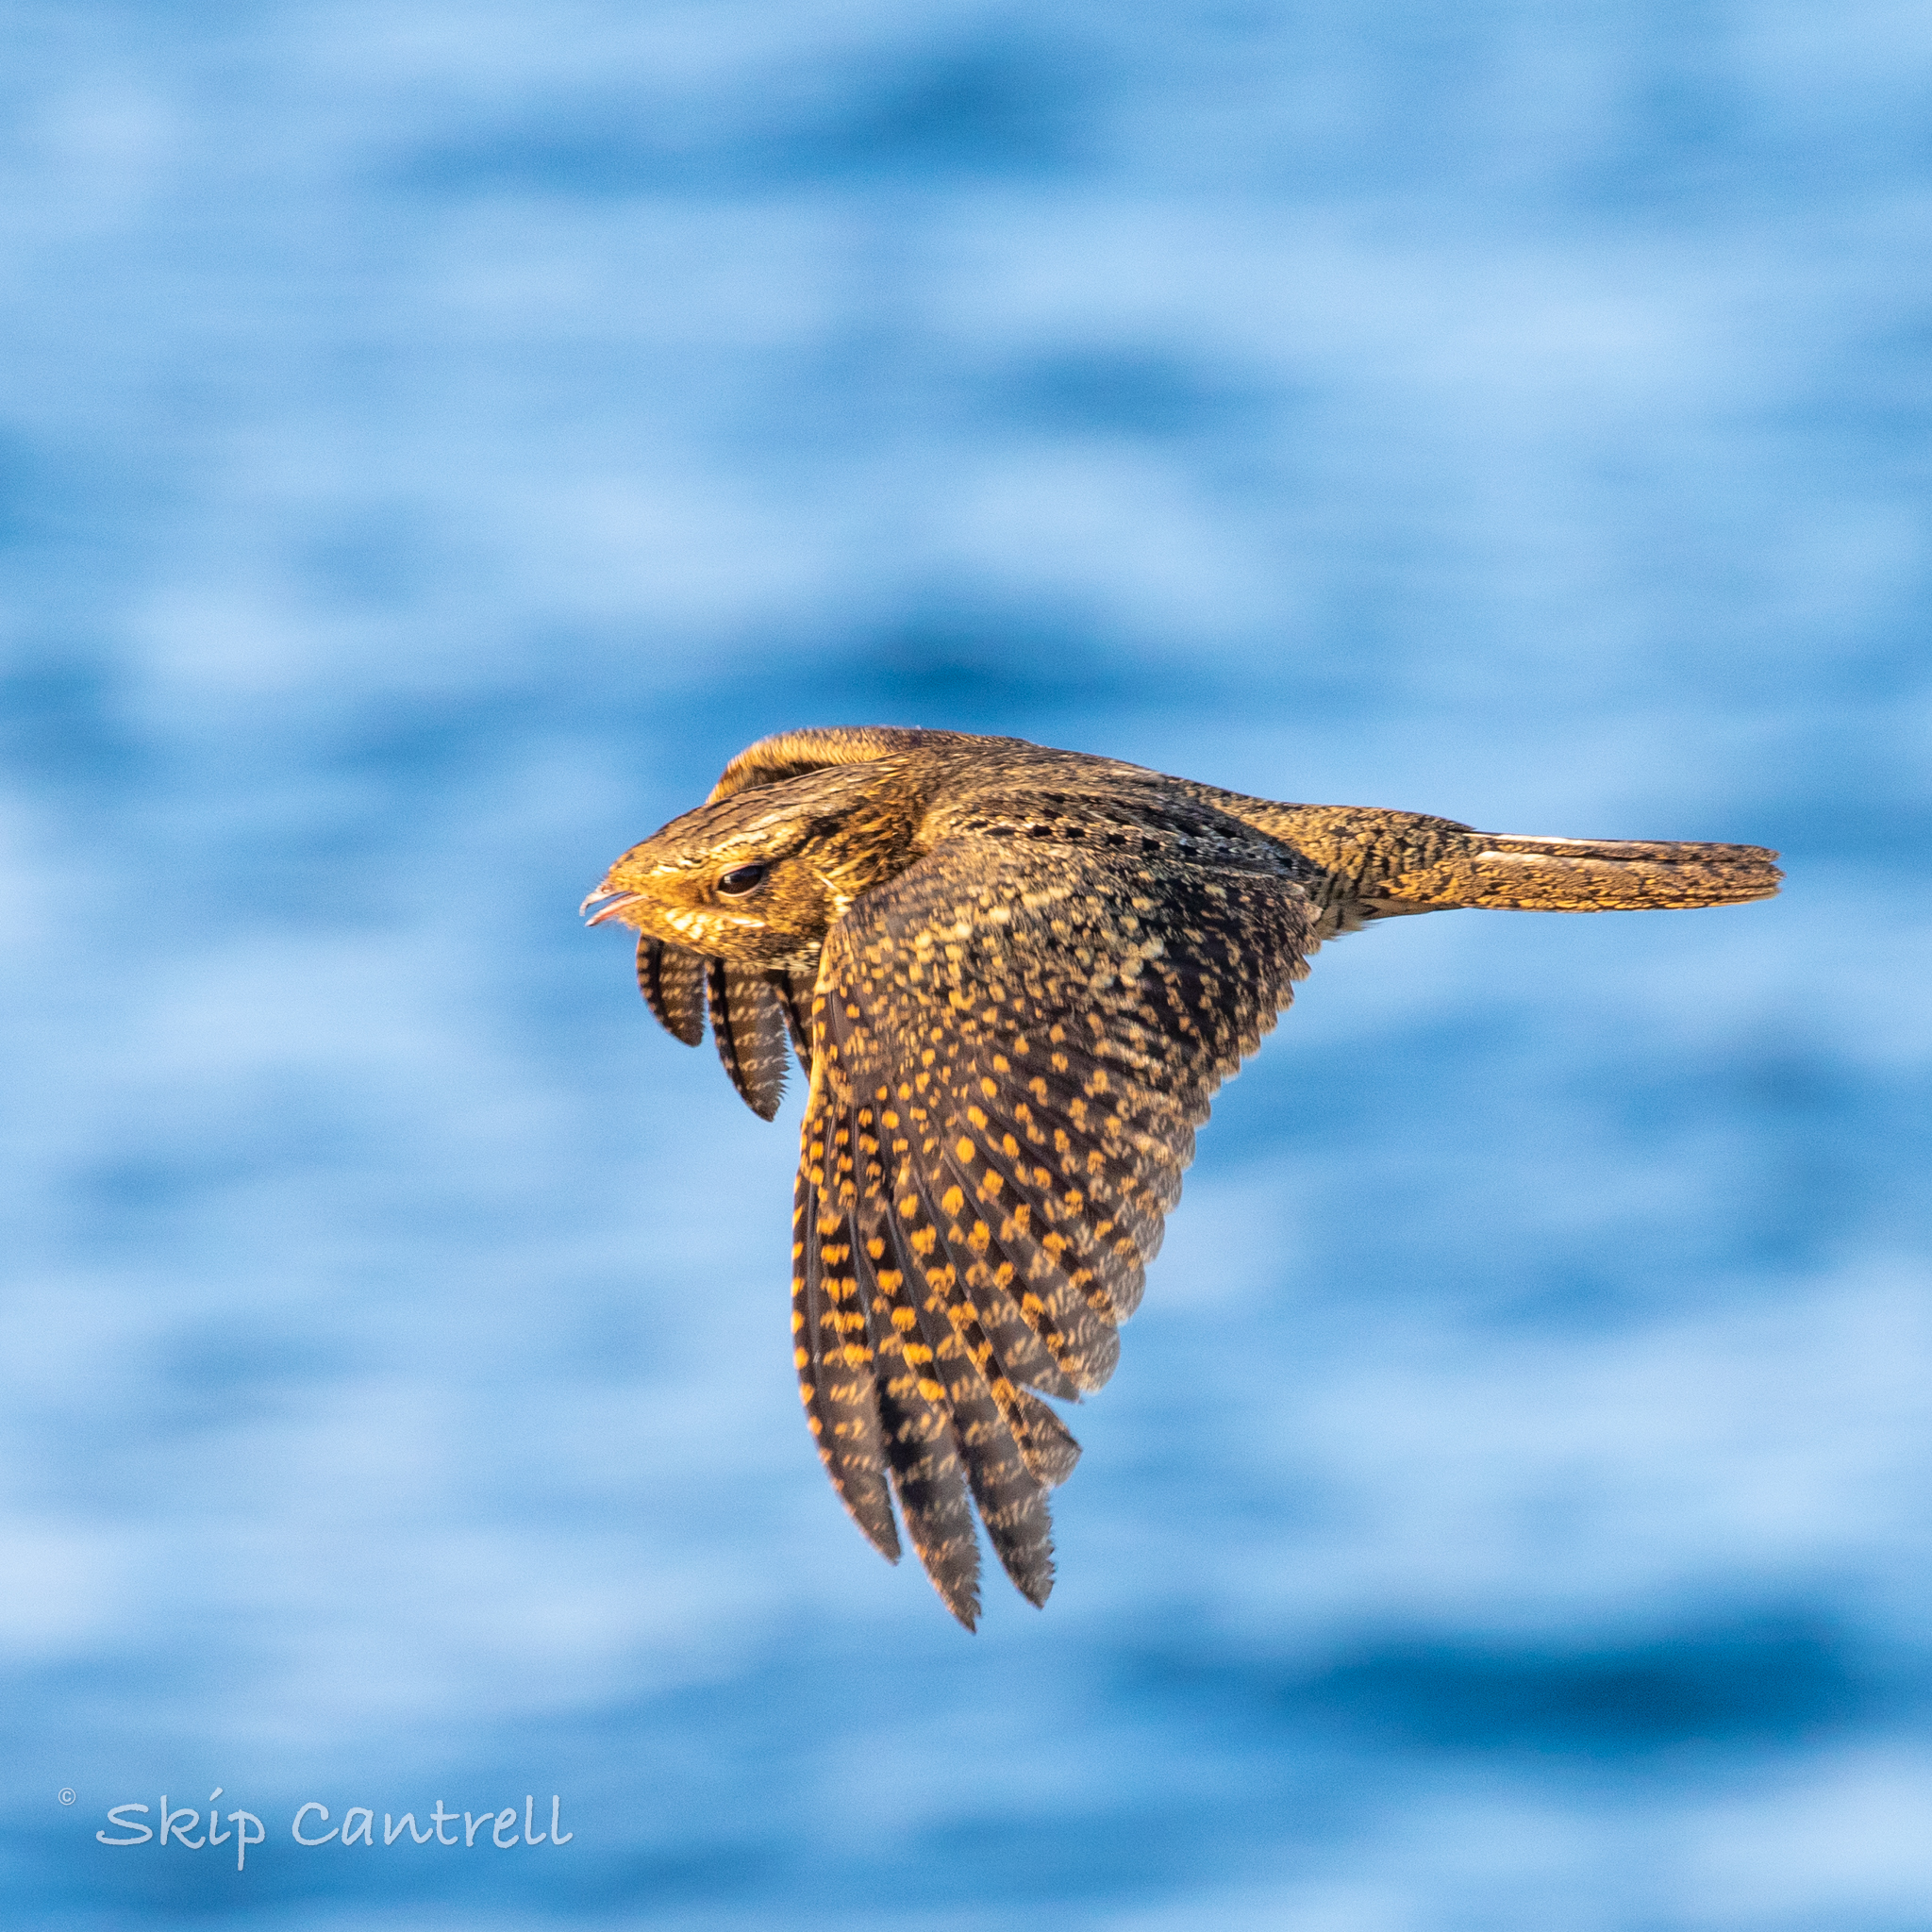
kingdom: Animalia
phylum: Chordata
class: Aves
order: Caprimulgiformes
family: Caprimulgidae
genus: Antrostomus
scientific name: Antrostomus carolinensis
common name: Chuck-will's-widow
